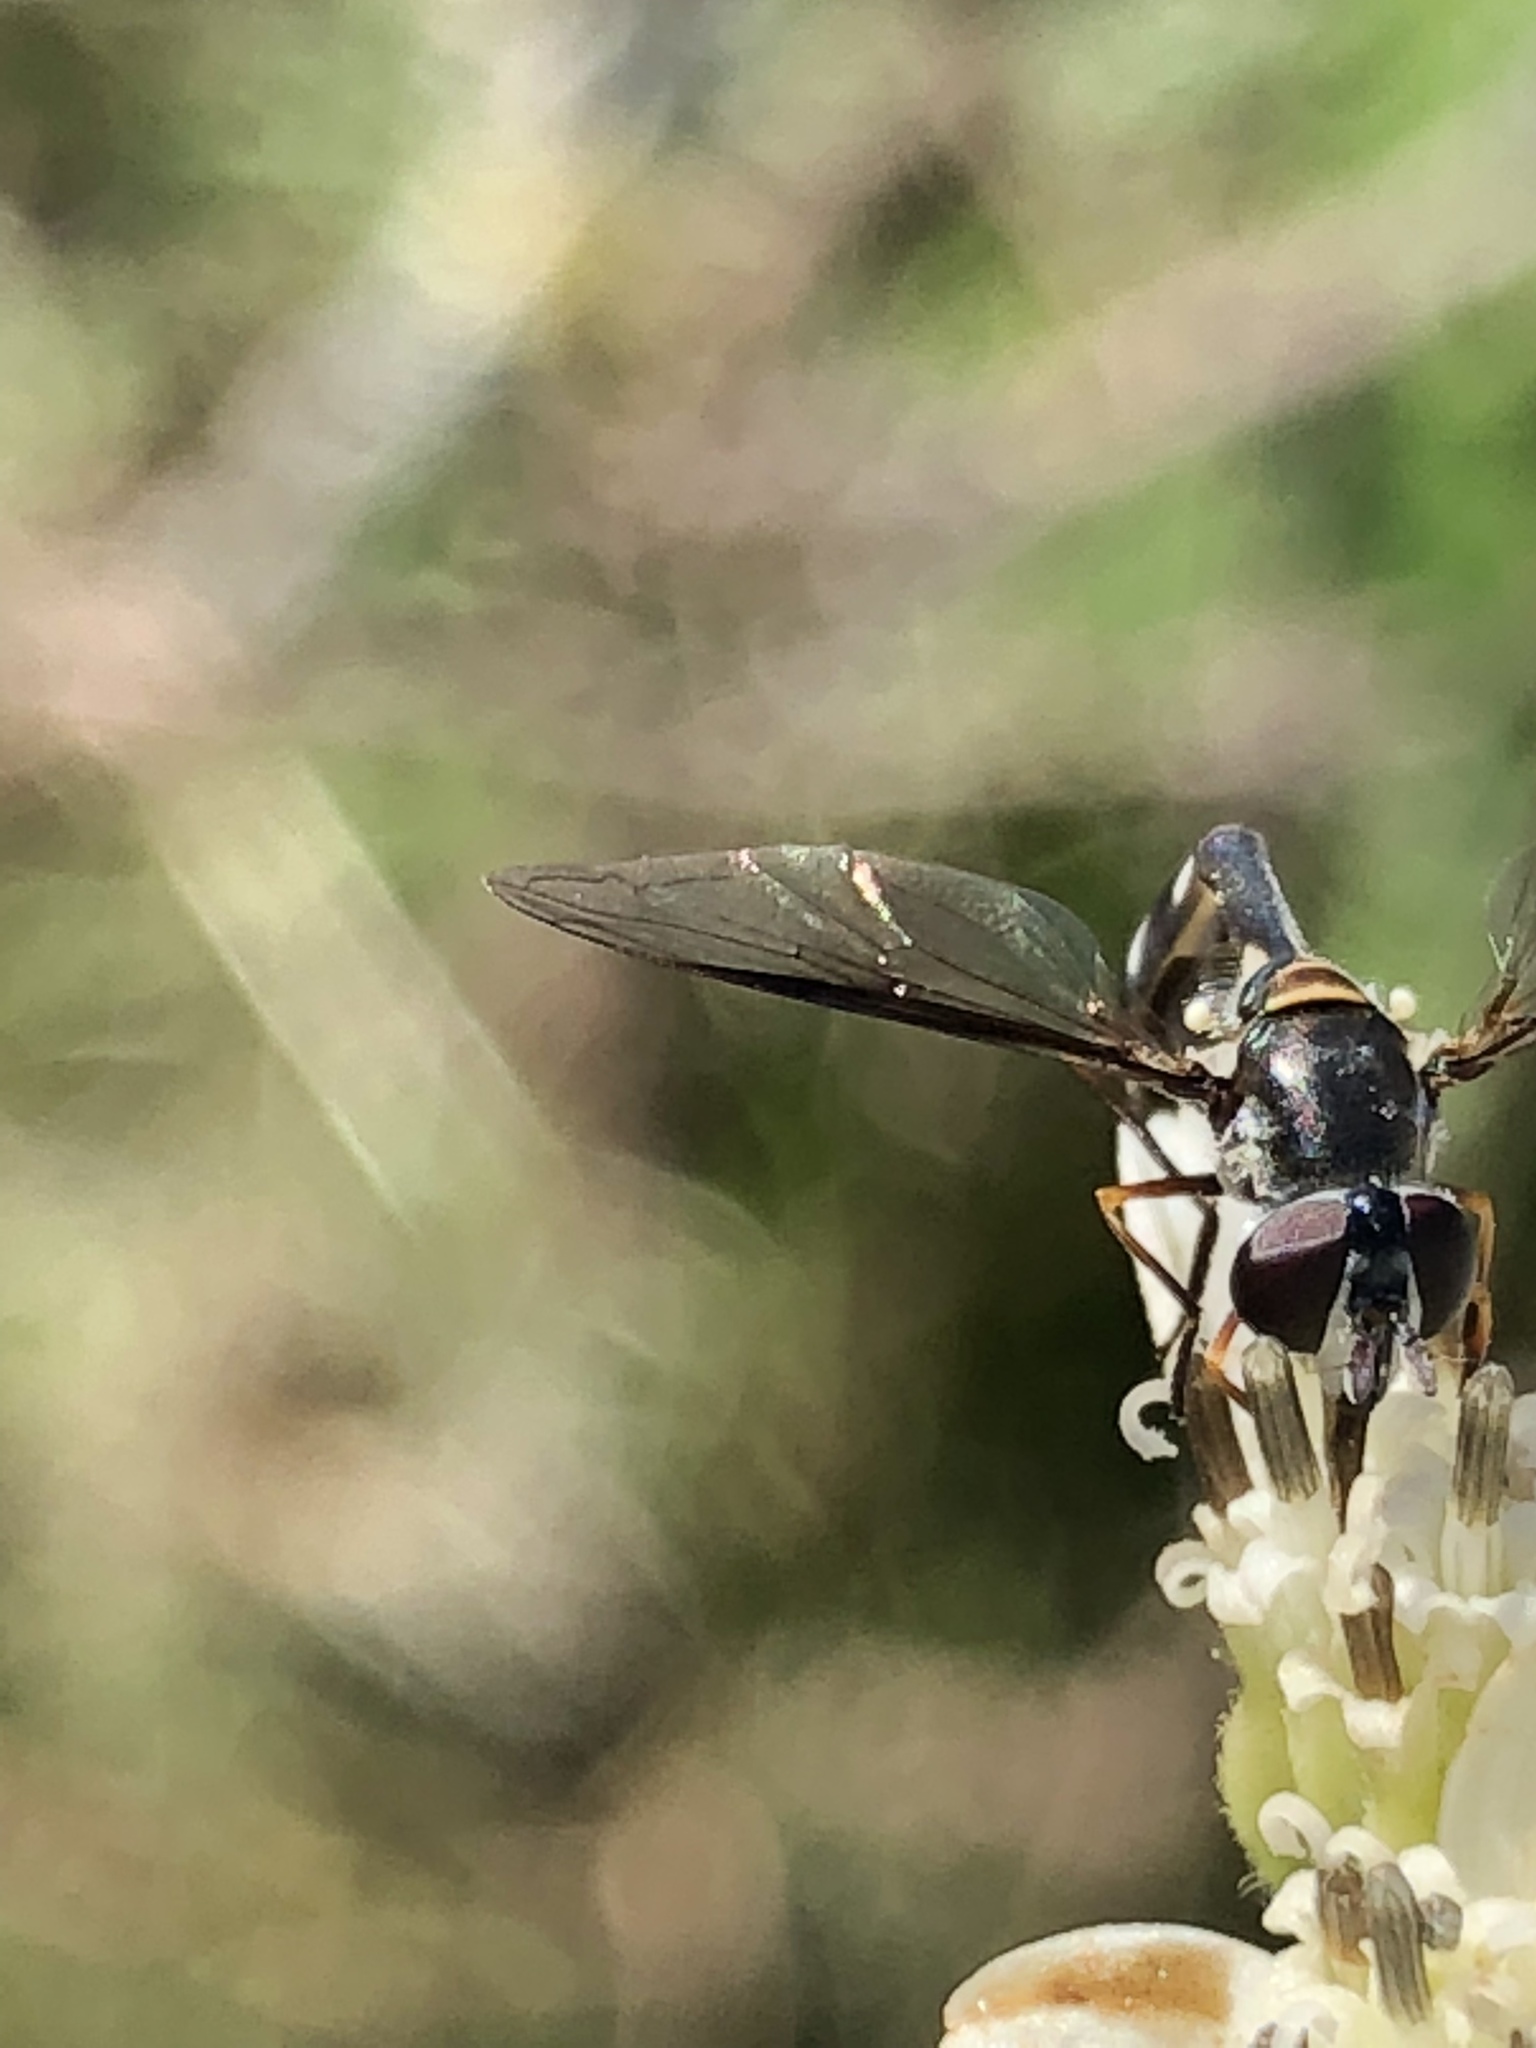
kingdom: Animalia
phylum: Arthropoda
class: Insecta
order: Diptera
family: Syrphidae
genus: Dioprosopa
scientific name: Dioprosopa clavatus
